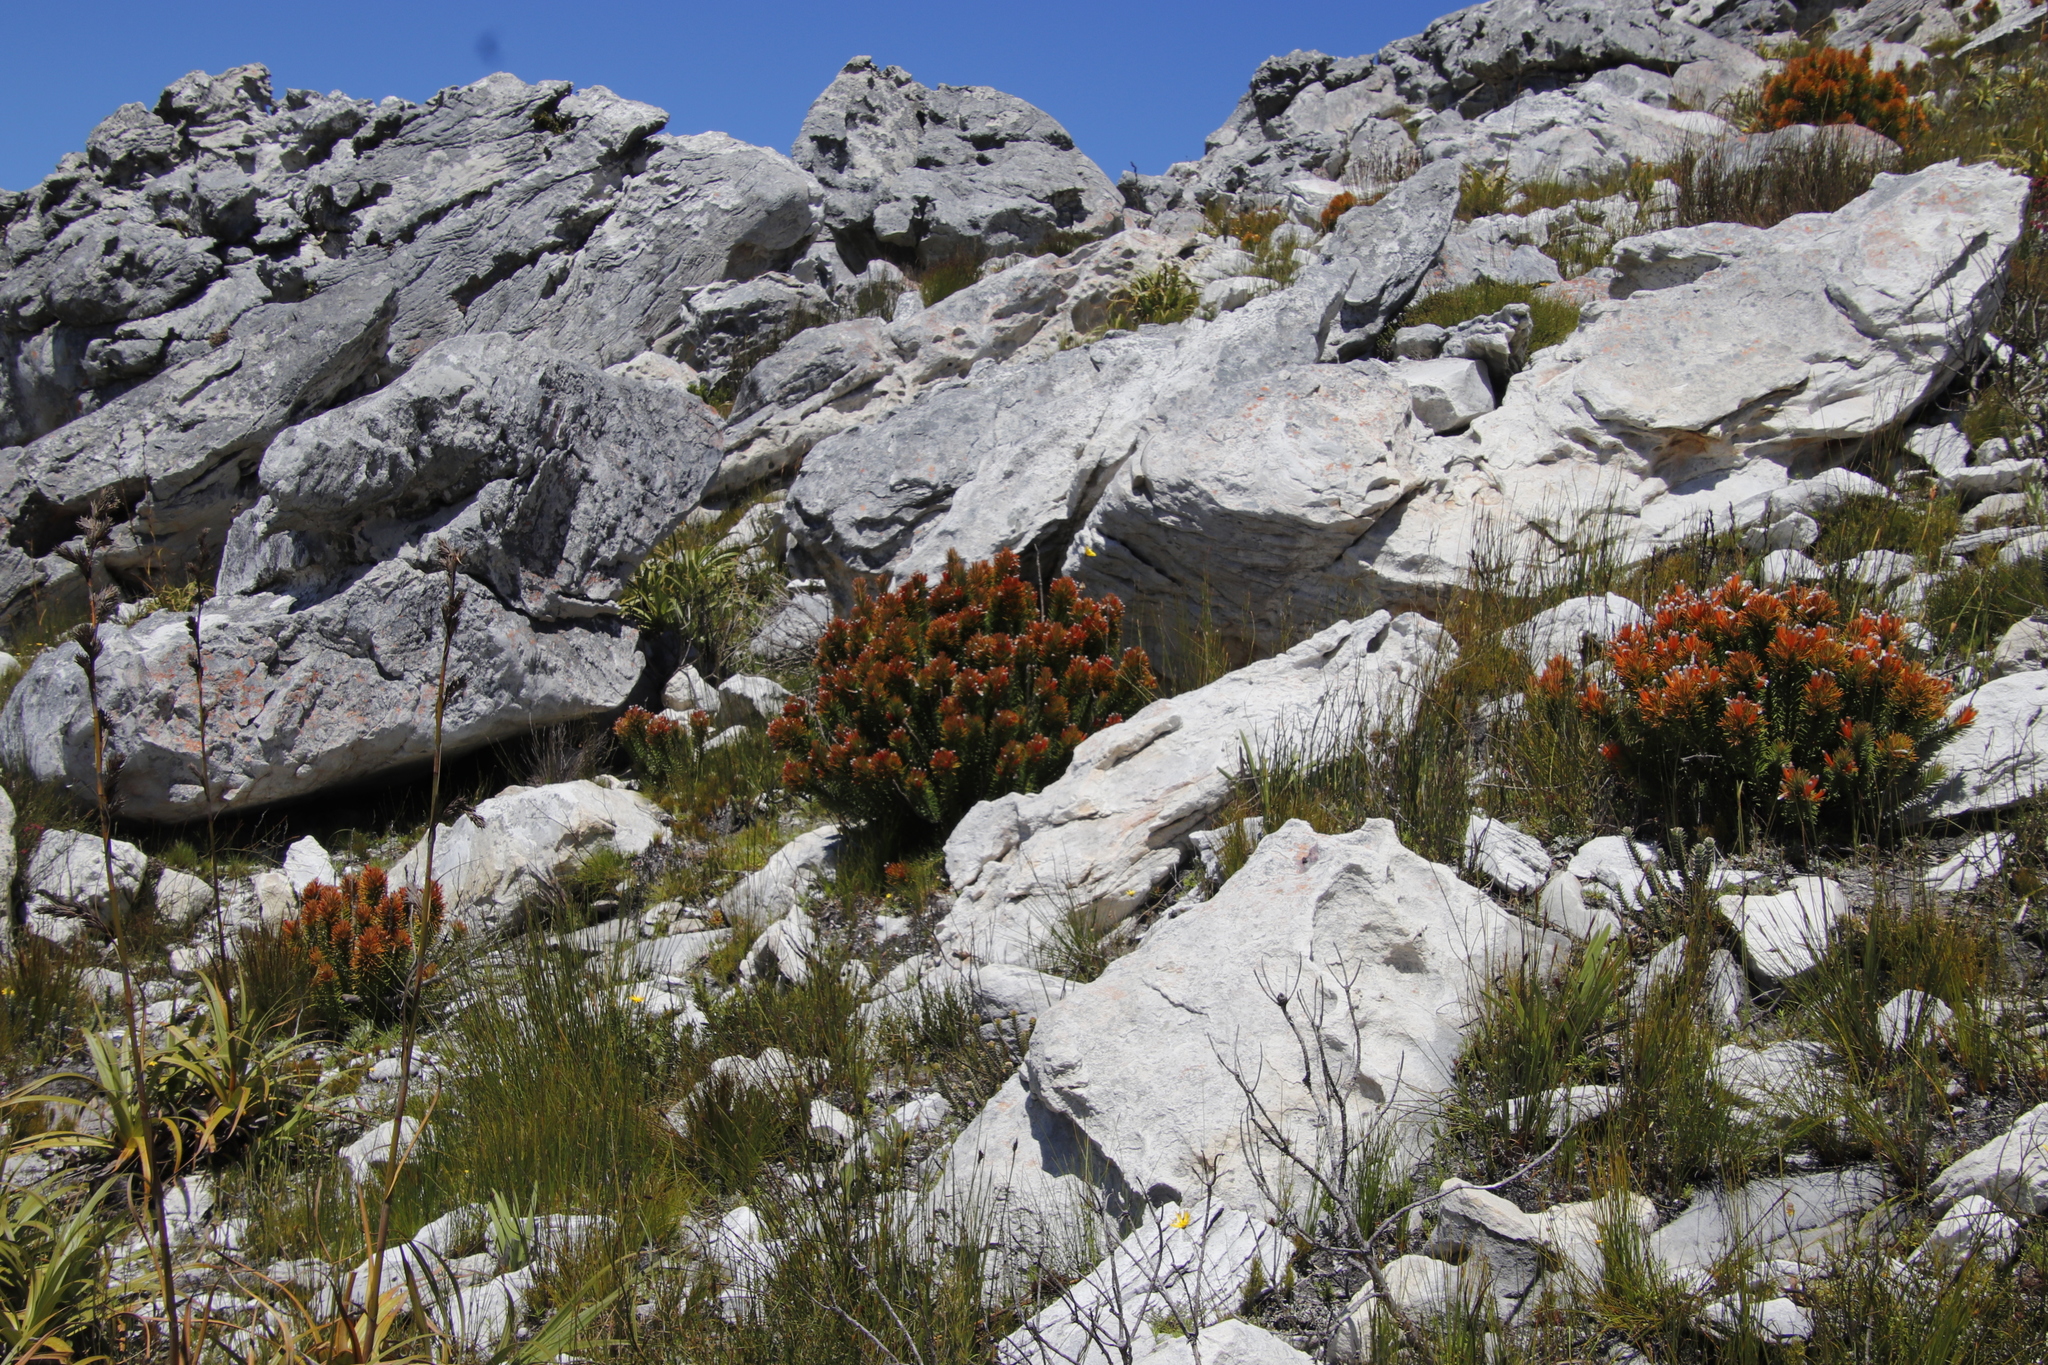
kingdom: Plantae
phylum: Tracheophyta
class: Magnoliopsida
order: Lamiales
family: Stilbaceae
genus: Retzia
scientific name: Retzia capensis
